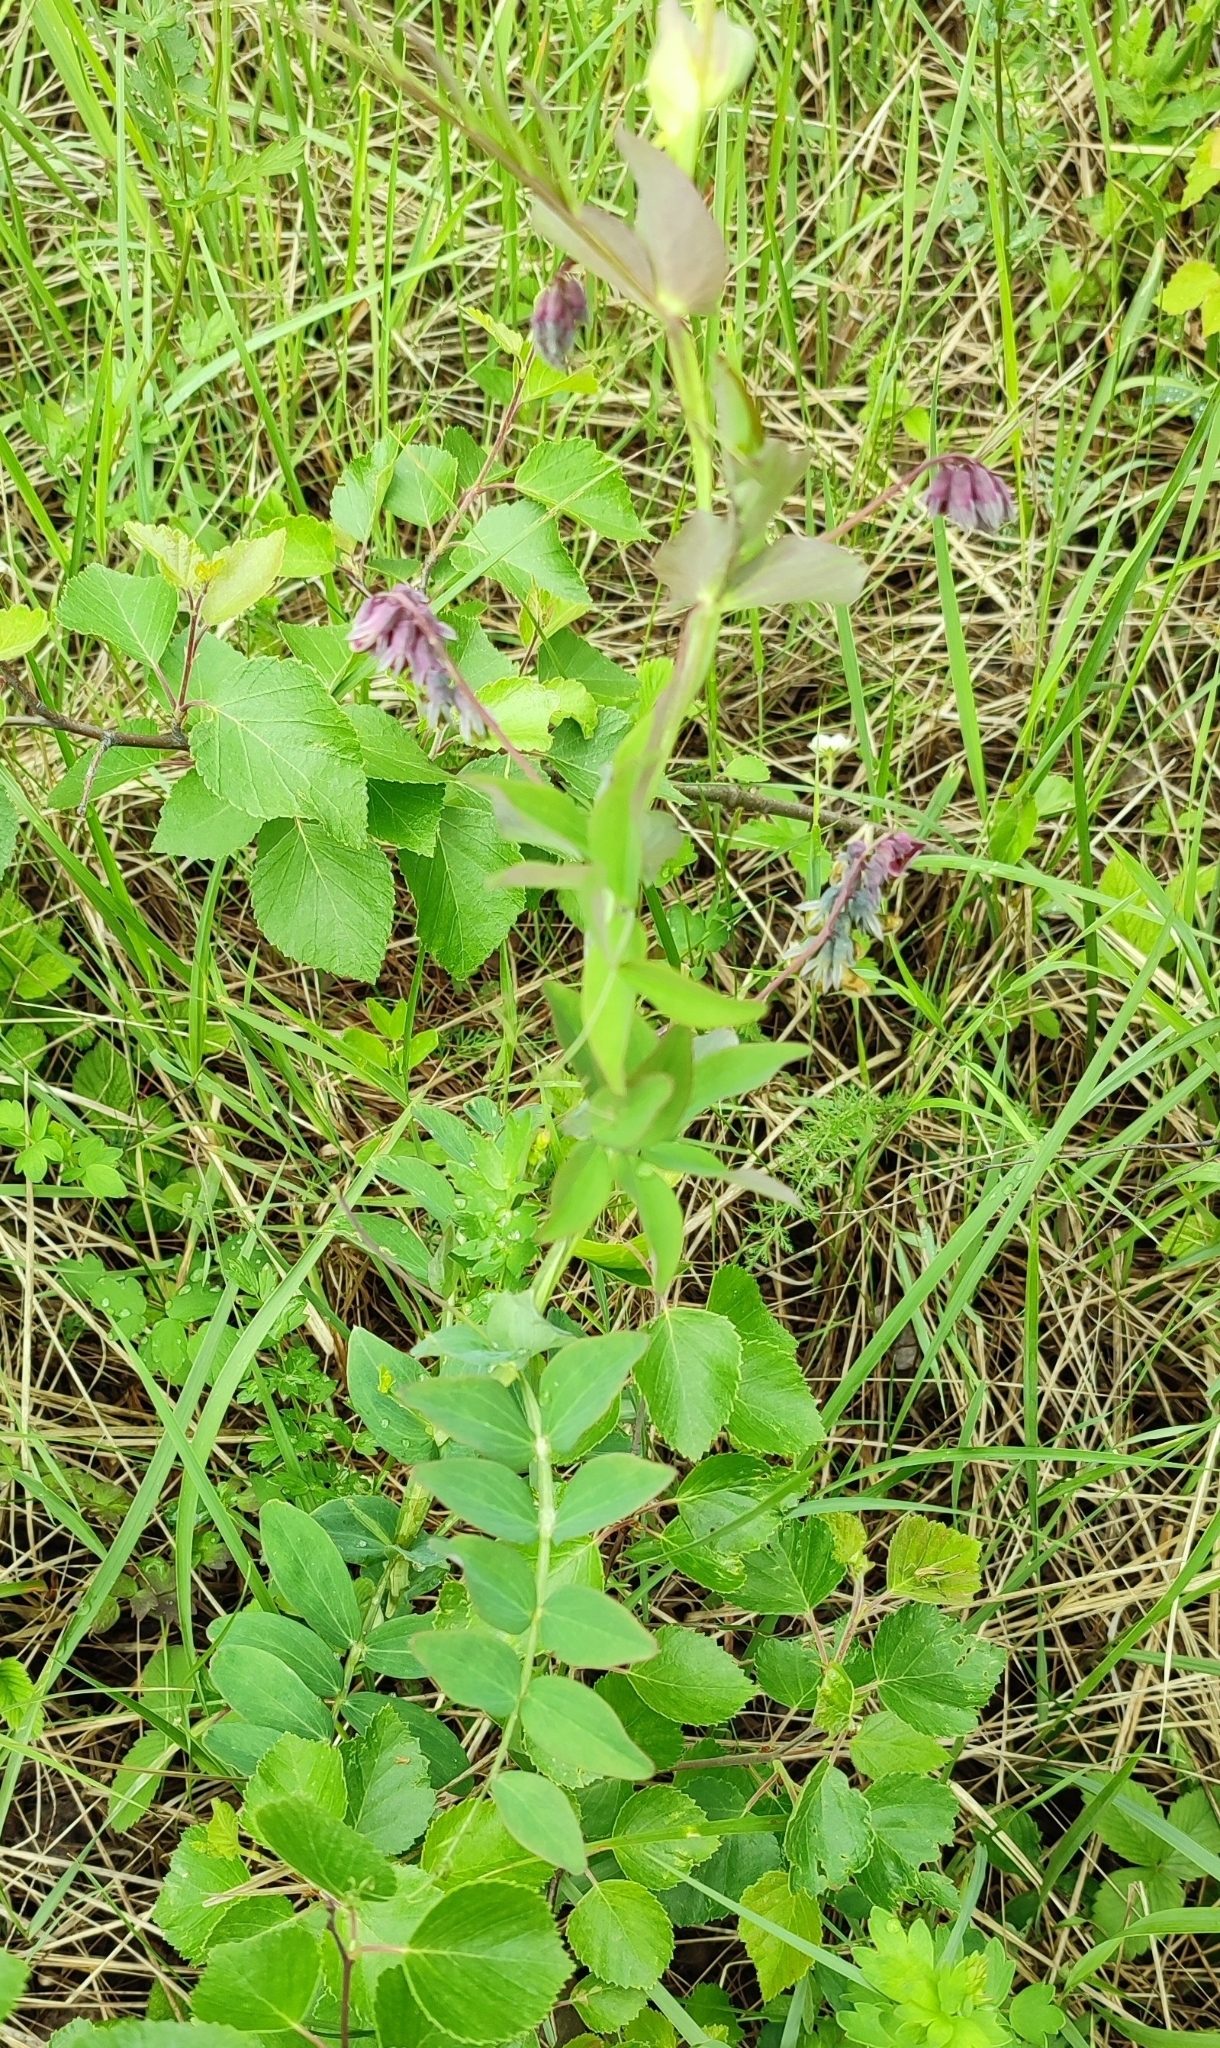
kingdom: Plantae
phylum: Tracheophyta
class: Magnoliopsida
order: Fabales
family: Fabaceae
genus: Lathyrus
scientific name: Lathyrus pisiformis
